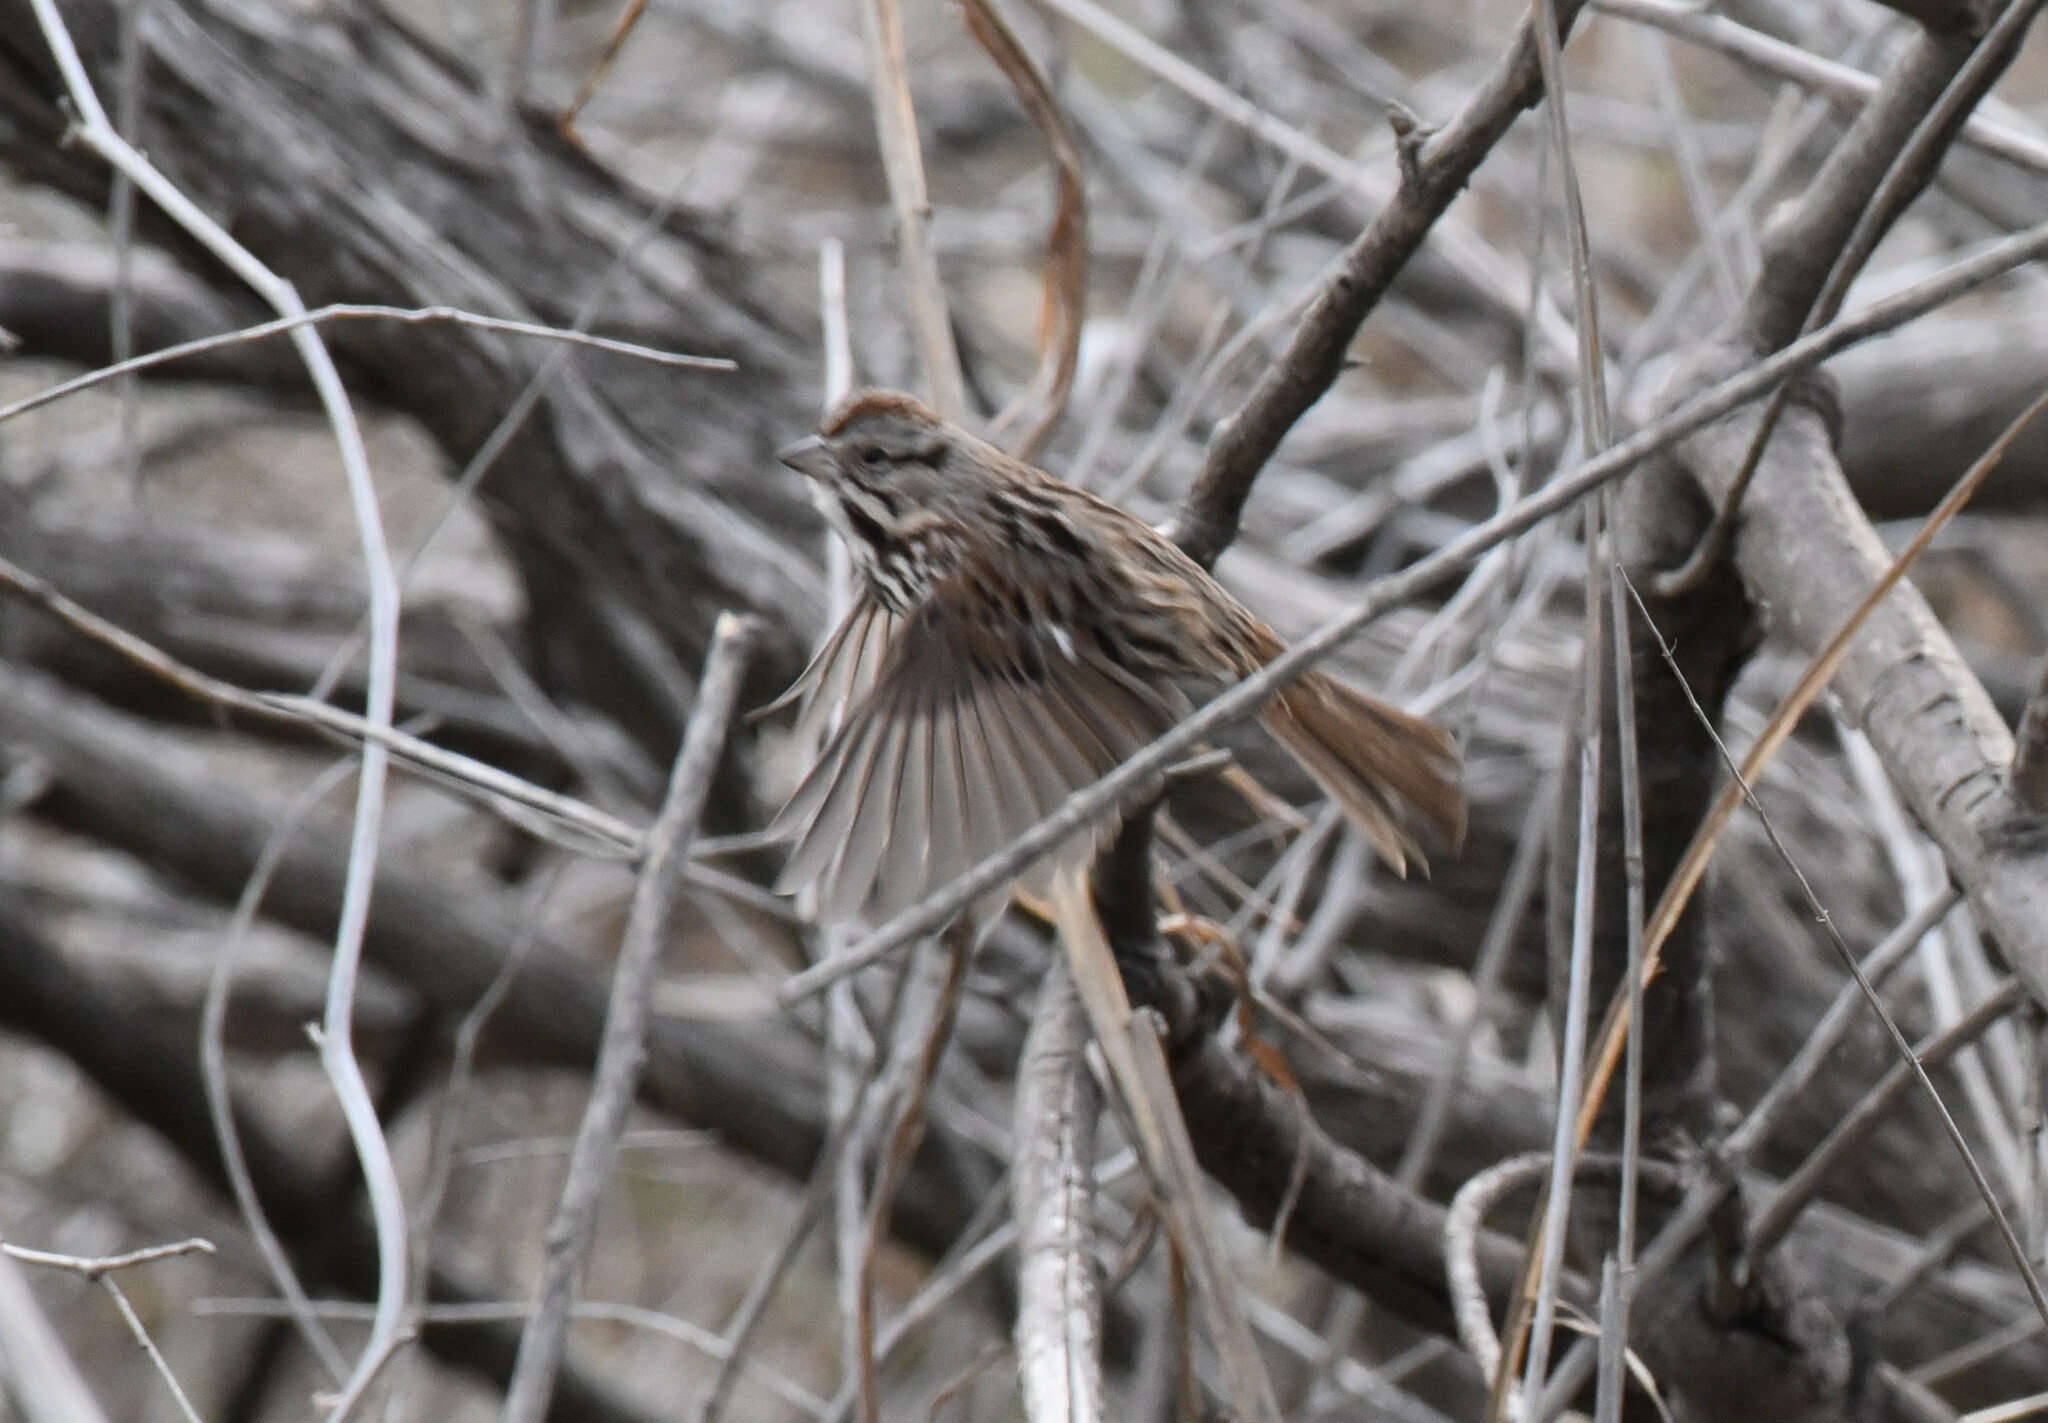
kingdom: Animalia
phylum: Chordata
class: Aves
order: Passeriformes
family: Passerellidae
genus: Melospiza
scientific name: Melospiza melodia
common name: Song sparrow
